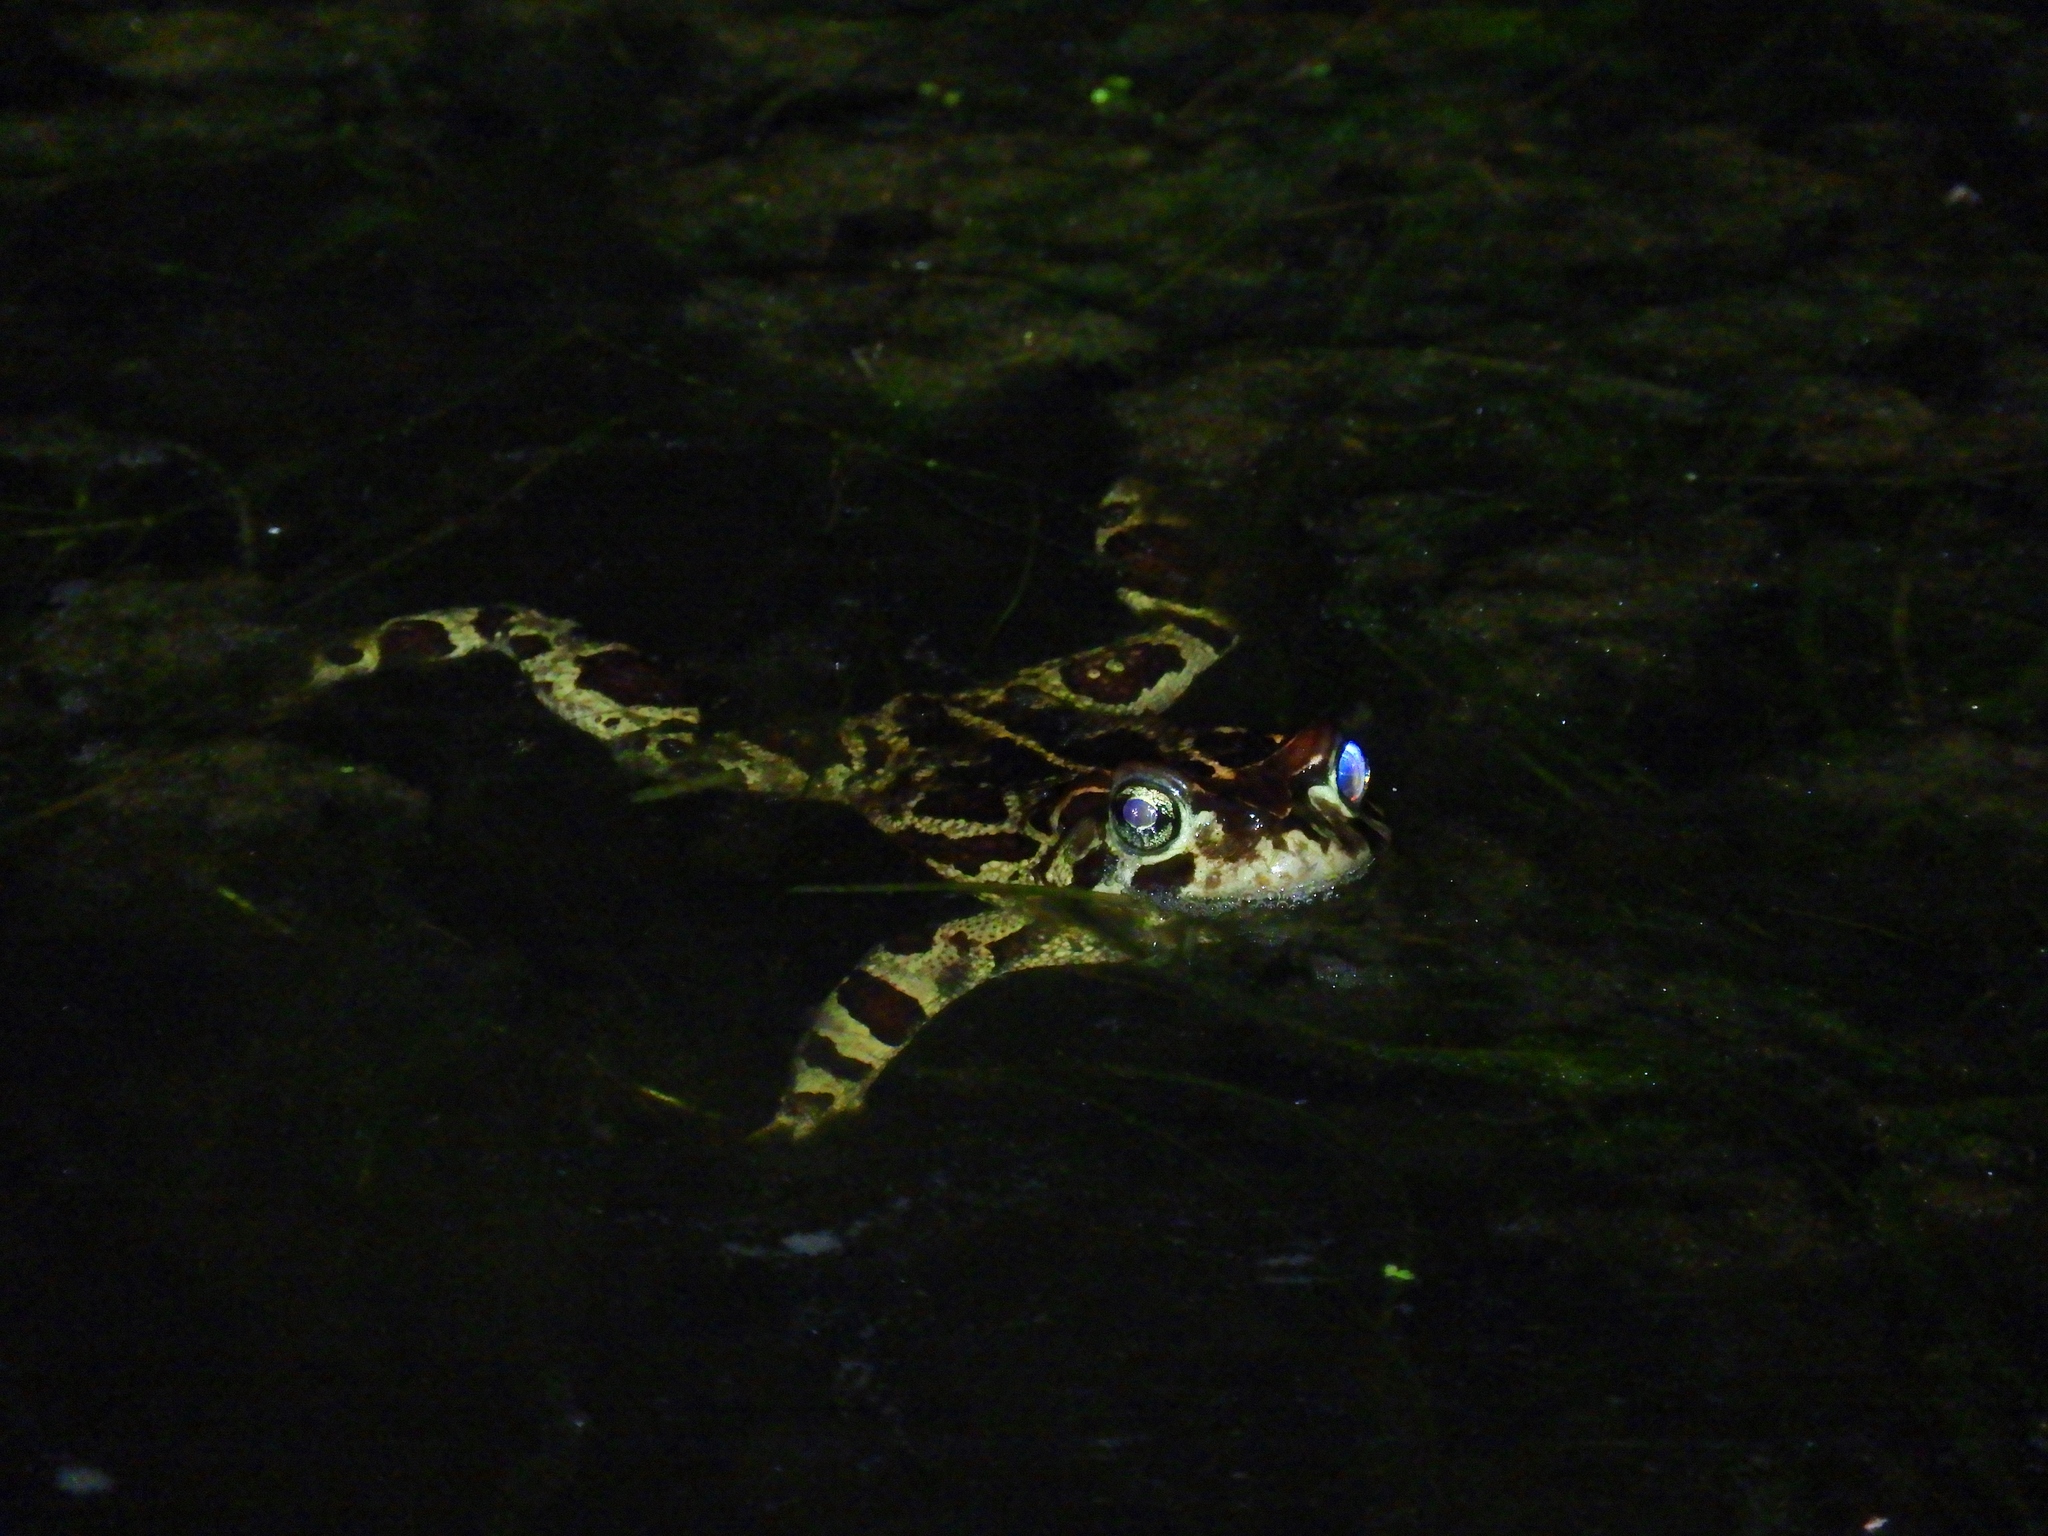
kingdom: Animalia
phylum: Chordata
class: Amphibia
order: Anura
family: Bufonidae
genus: Sclerophrys
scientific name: Sclerophrys pantherina
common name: Panther toad
